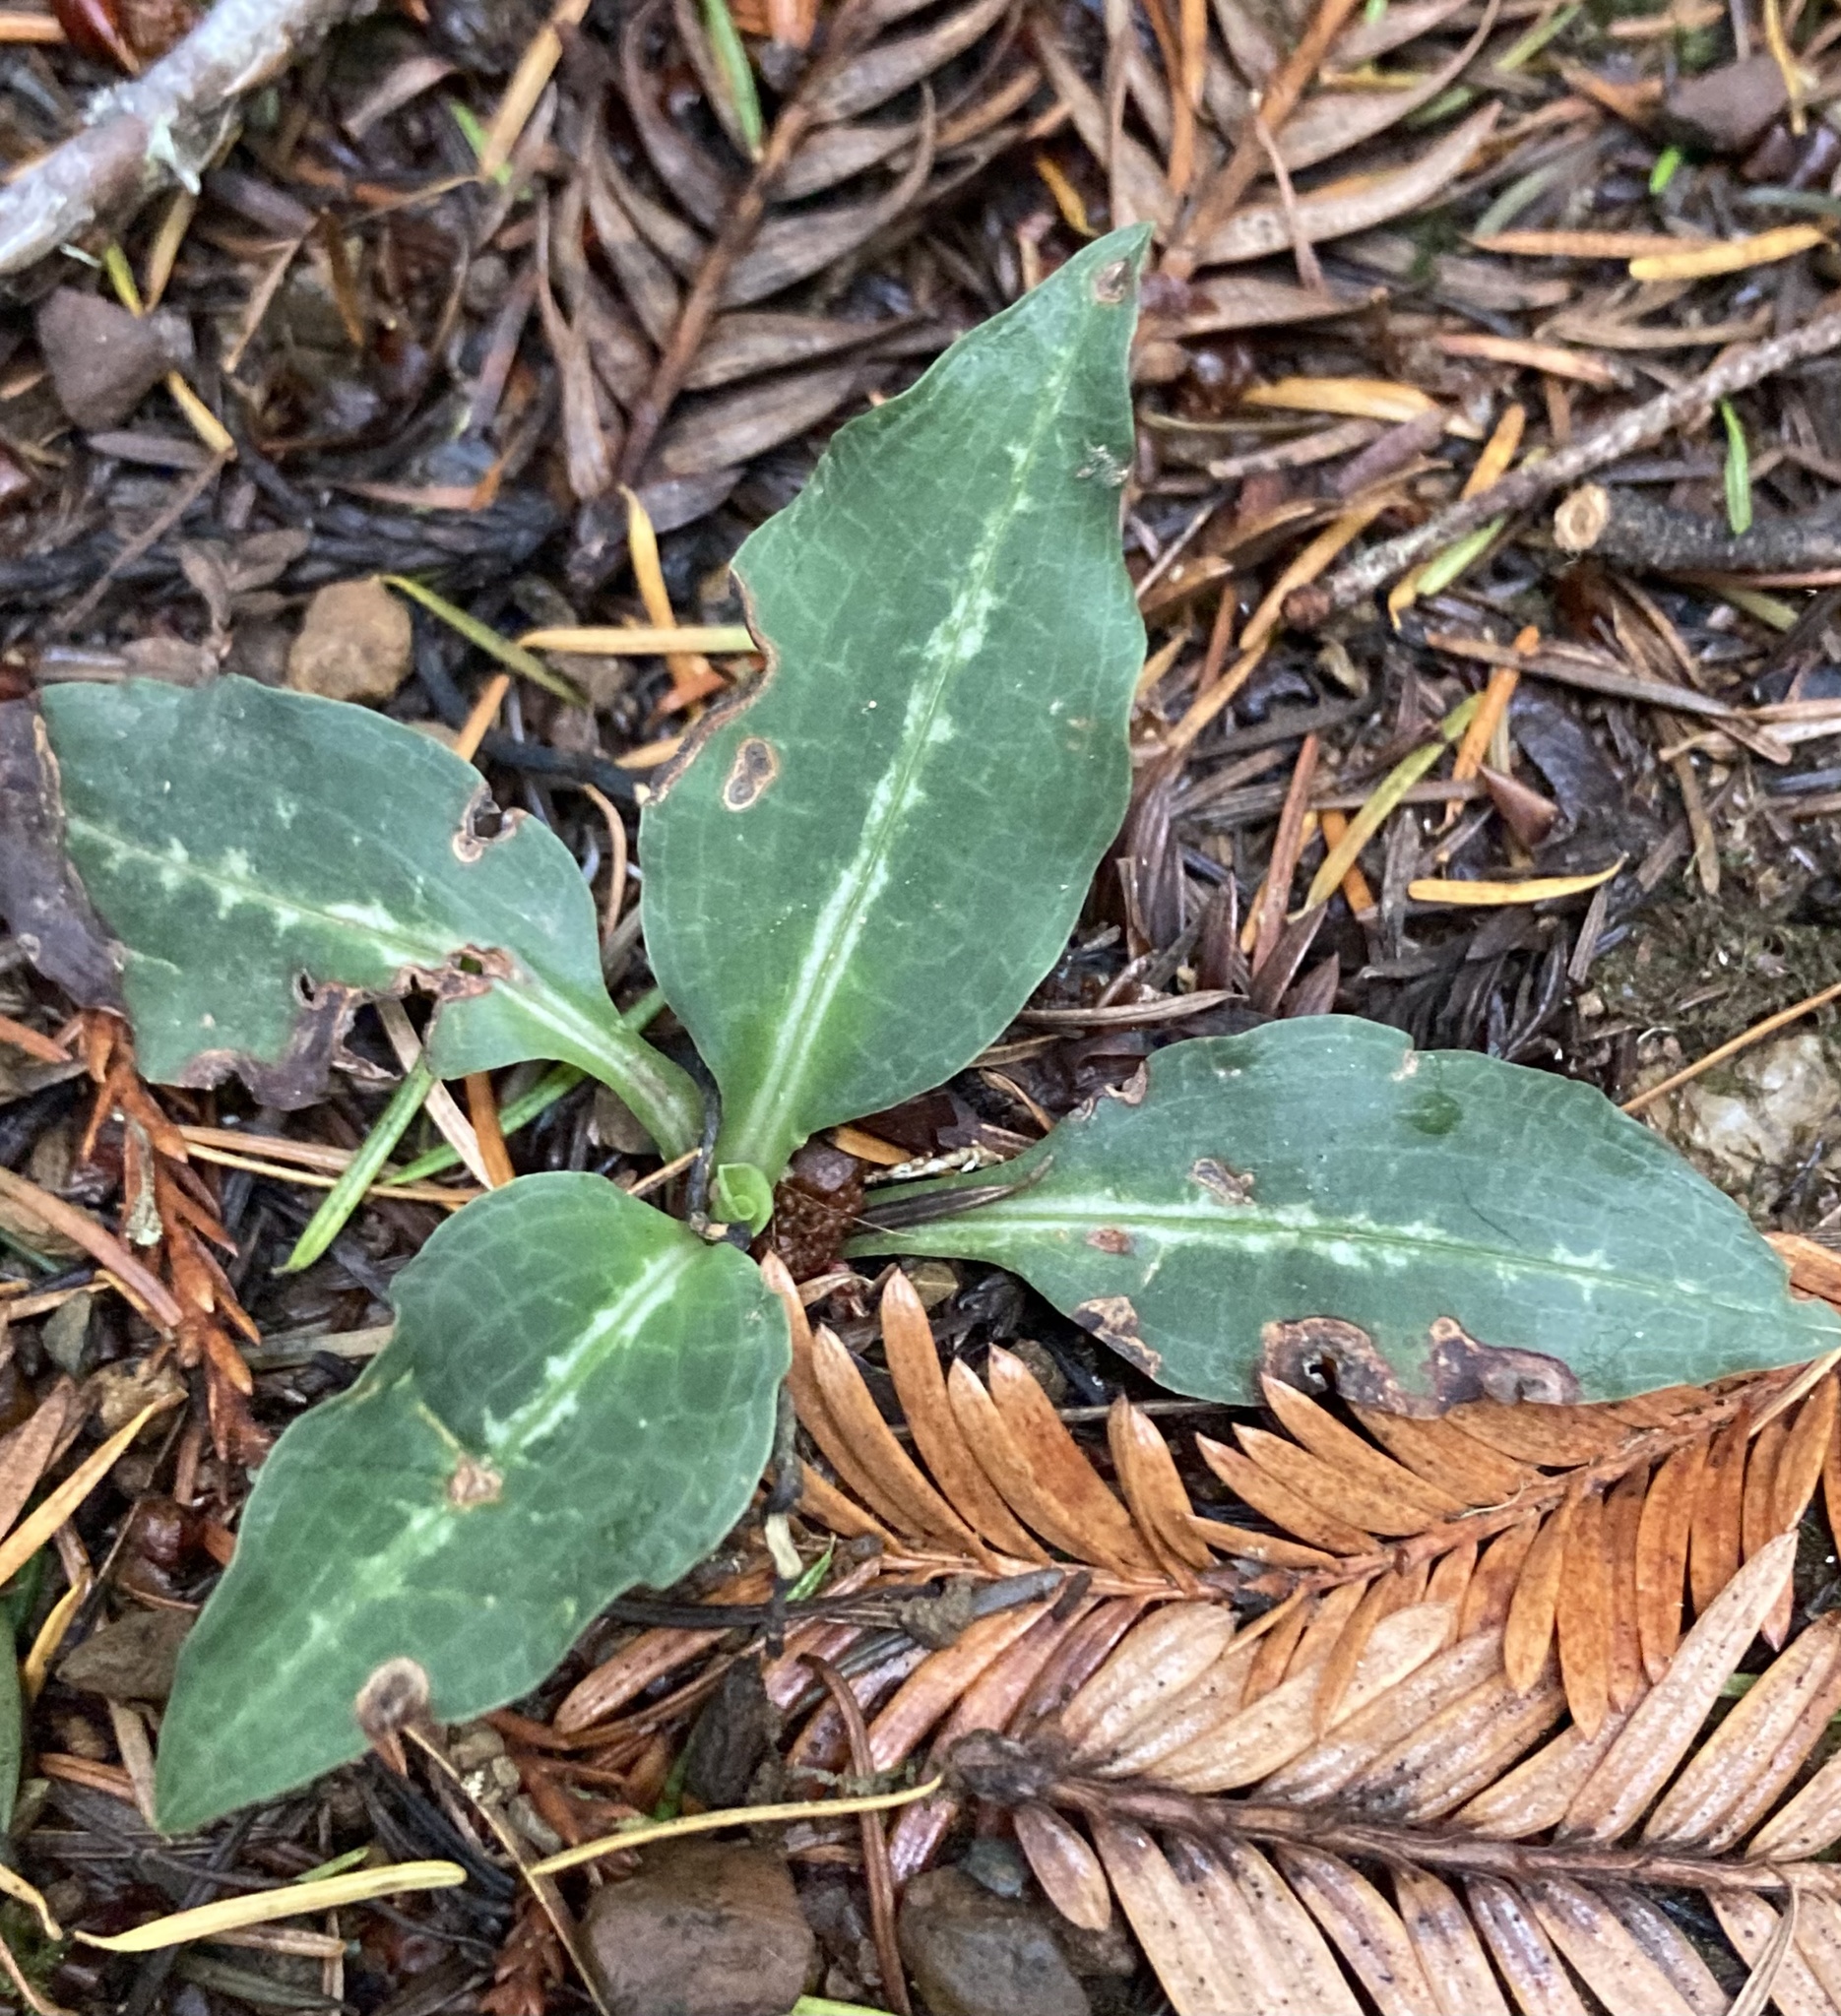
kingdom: Plantae
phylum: Tracheophyta
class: Liliopsida
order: Asparagales
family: Orchidaceae
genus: Goodyera
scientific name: Goodyera oblongifolia
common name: Giant rattlesnake-plantain
